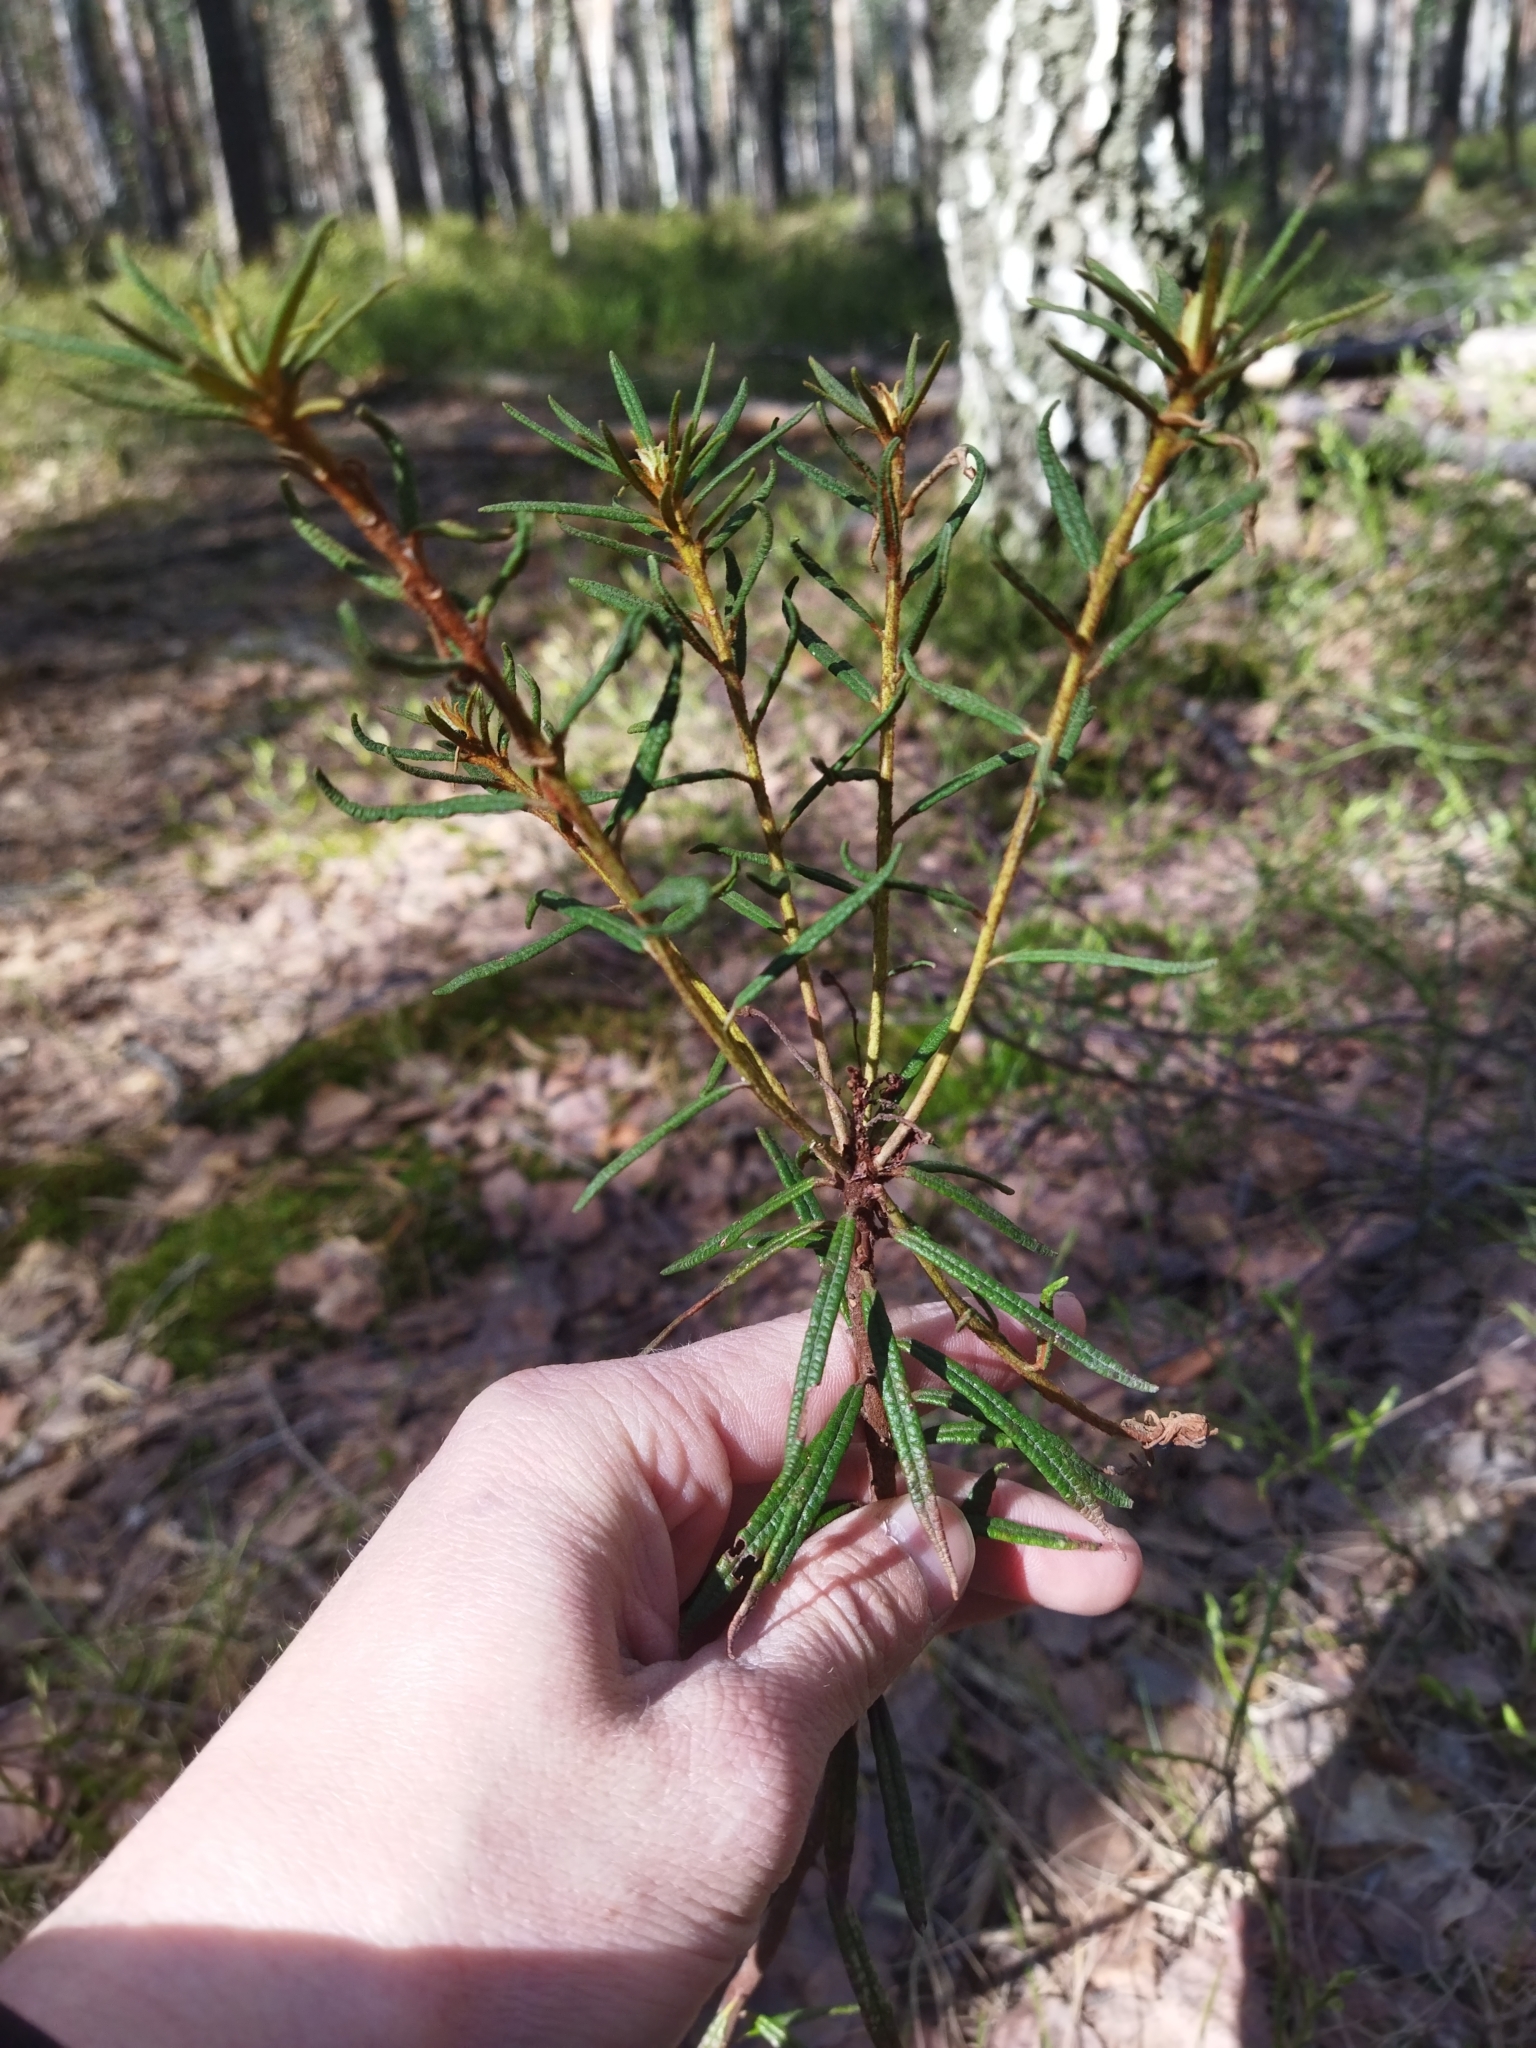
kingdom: Plantae
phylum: Tracheophyta
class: Magnoliopsida
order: Ericales
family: Ericaceae
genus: Rhododendron
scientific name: Rhododendron tomentosum
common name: Marsh labrador tea
